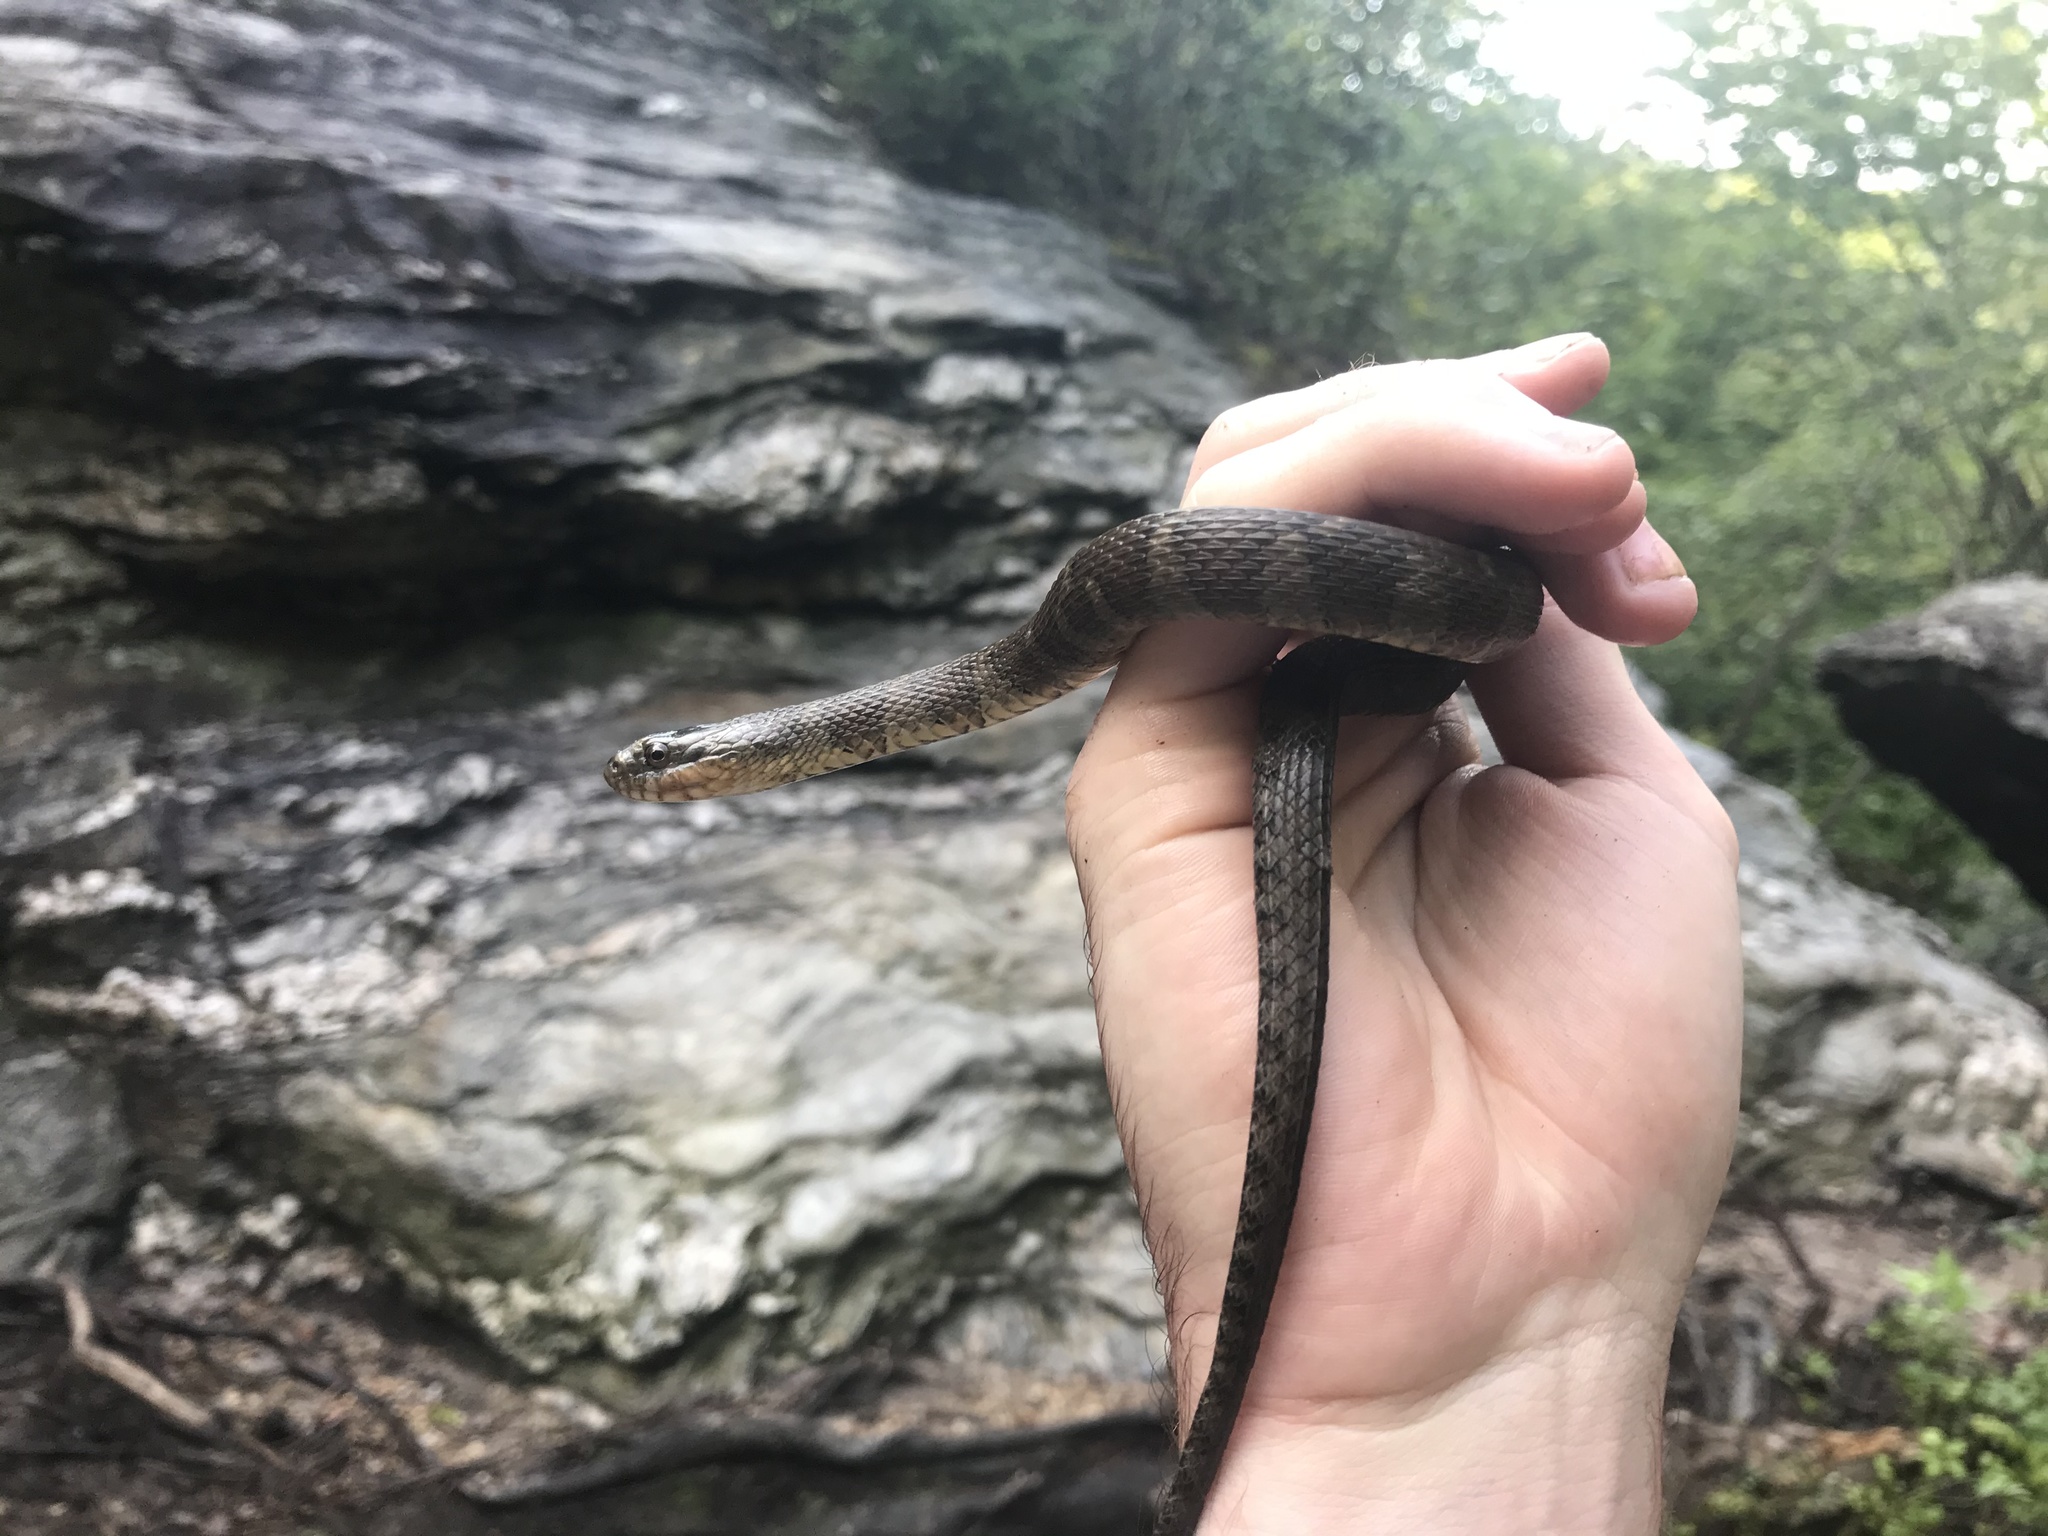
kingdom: Animalia
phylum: Chordata
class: Squamata
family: Colubridae
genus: Nerodia
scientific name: Nerodia sipedon
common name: Northern water snake
